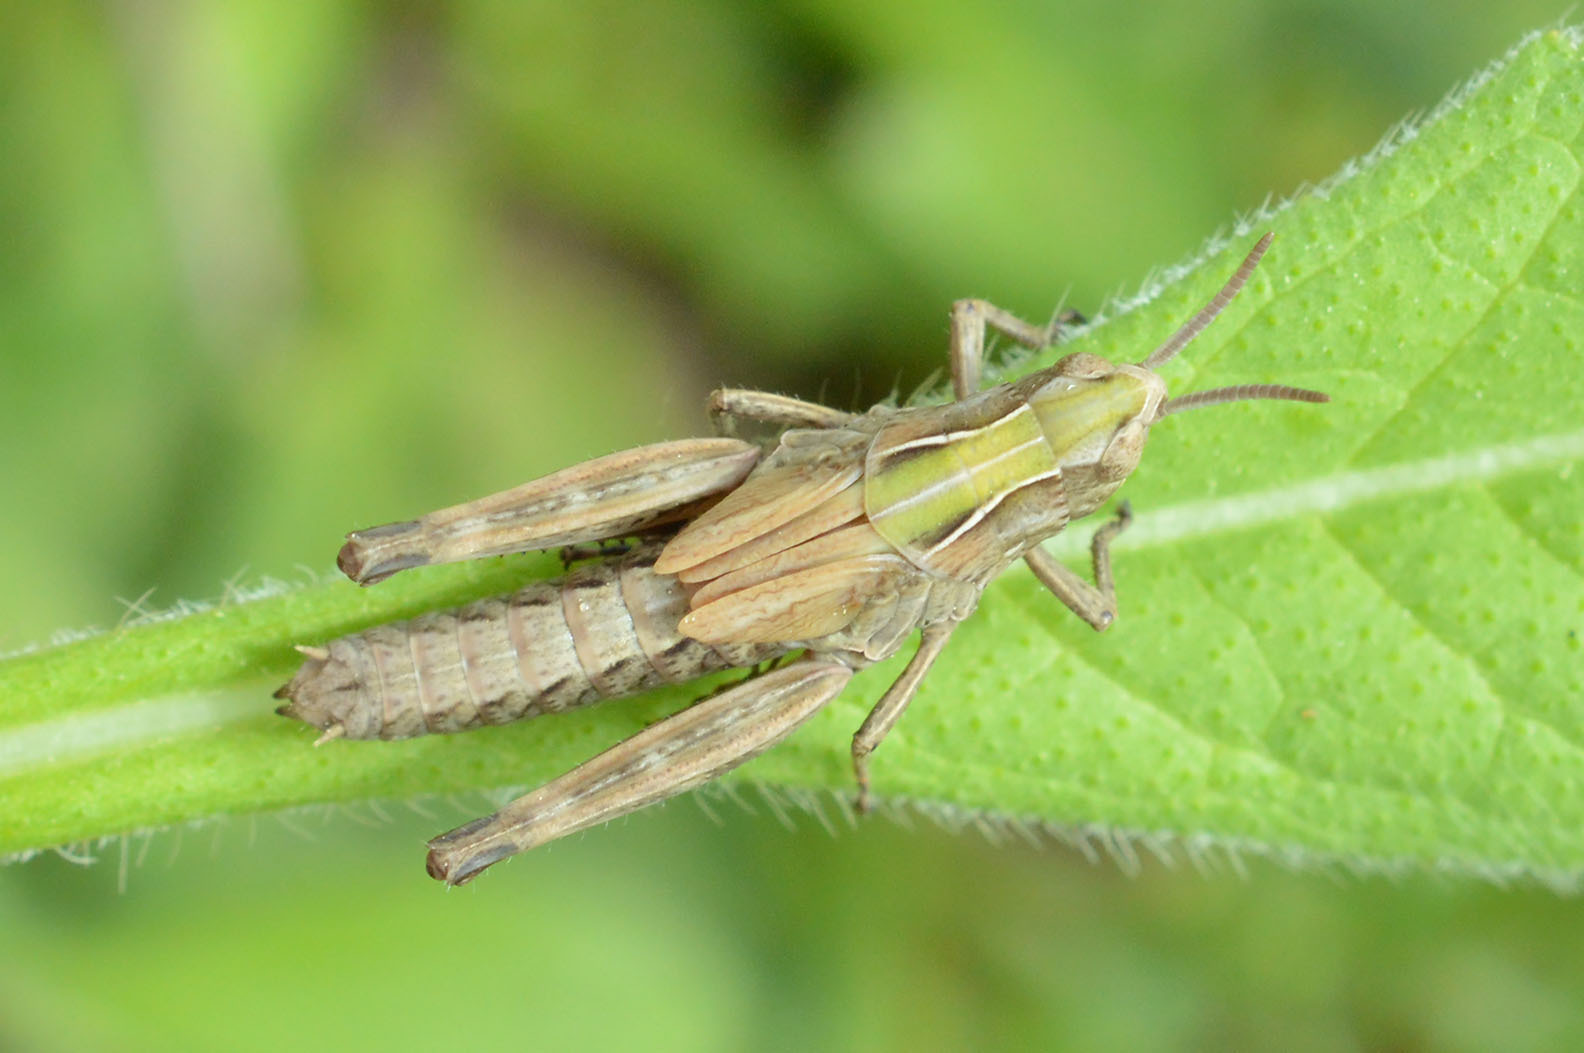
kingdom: Animalia
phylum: Arthropoda
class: Insecta
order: Orthoptera
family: Acrididae
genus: Omocestus
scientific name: Omocestus rufipes
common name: Woodland grasshopper
